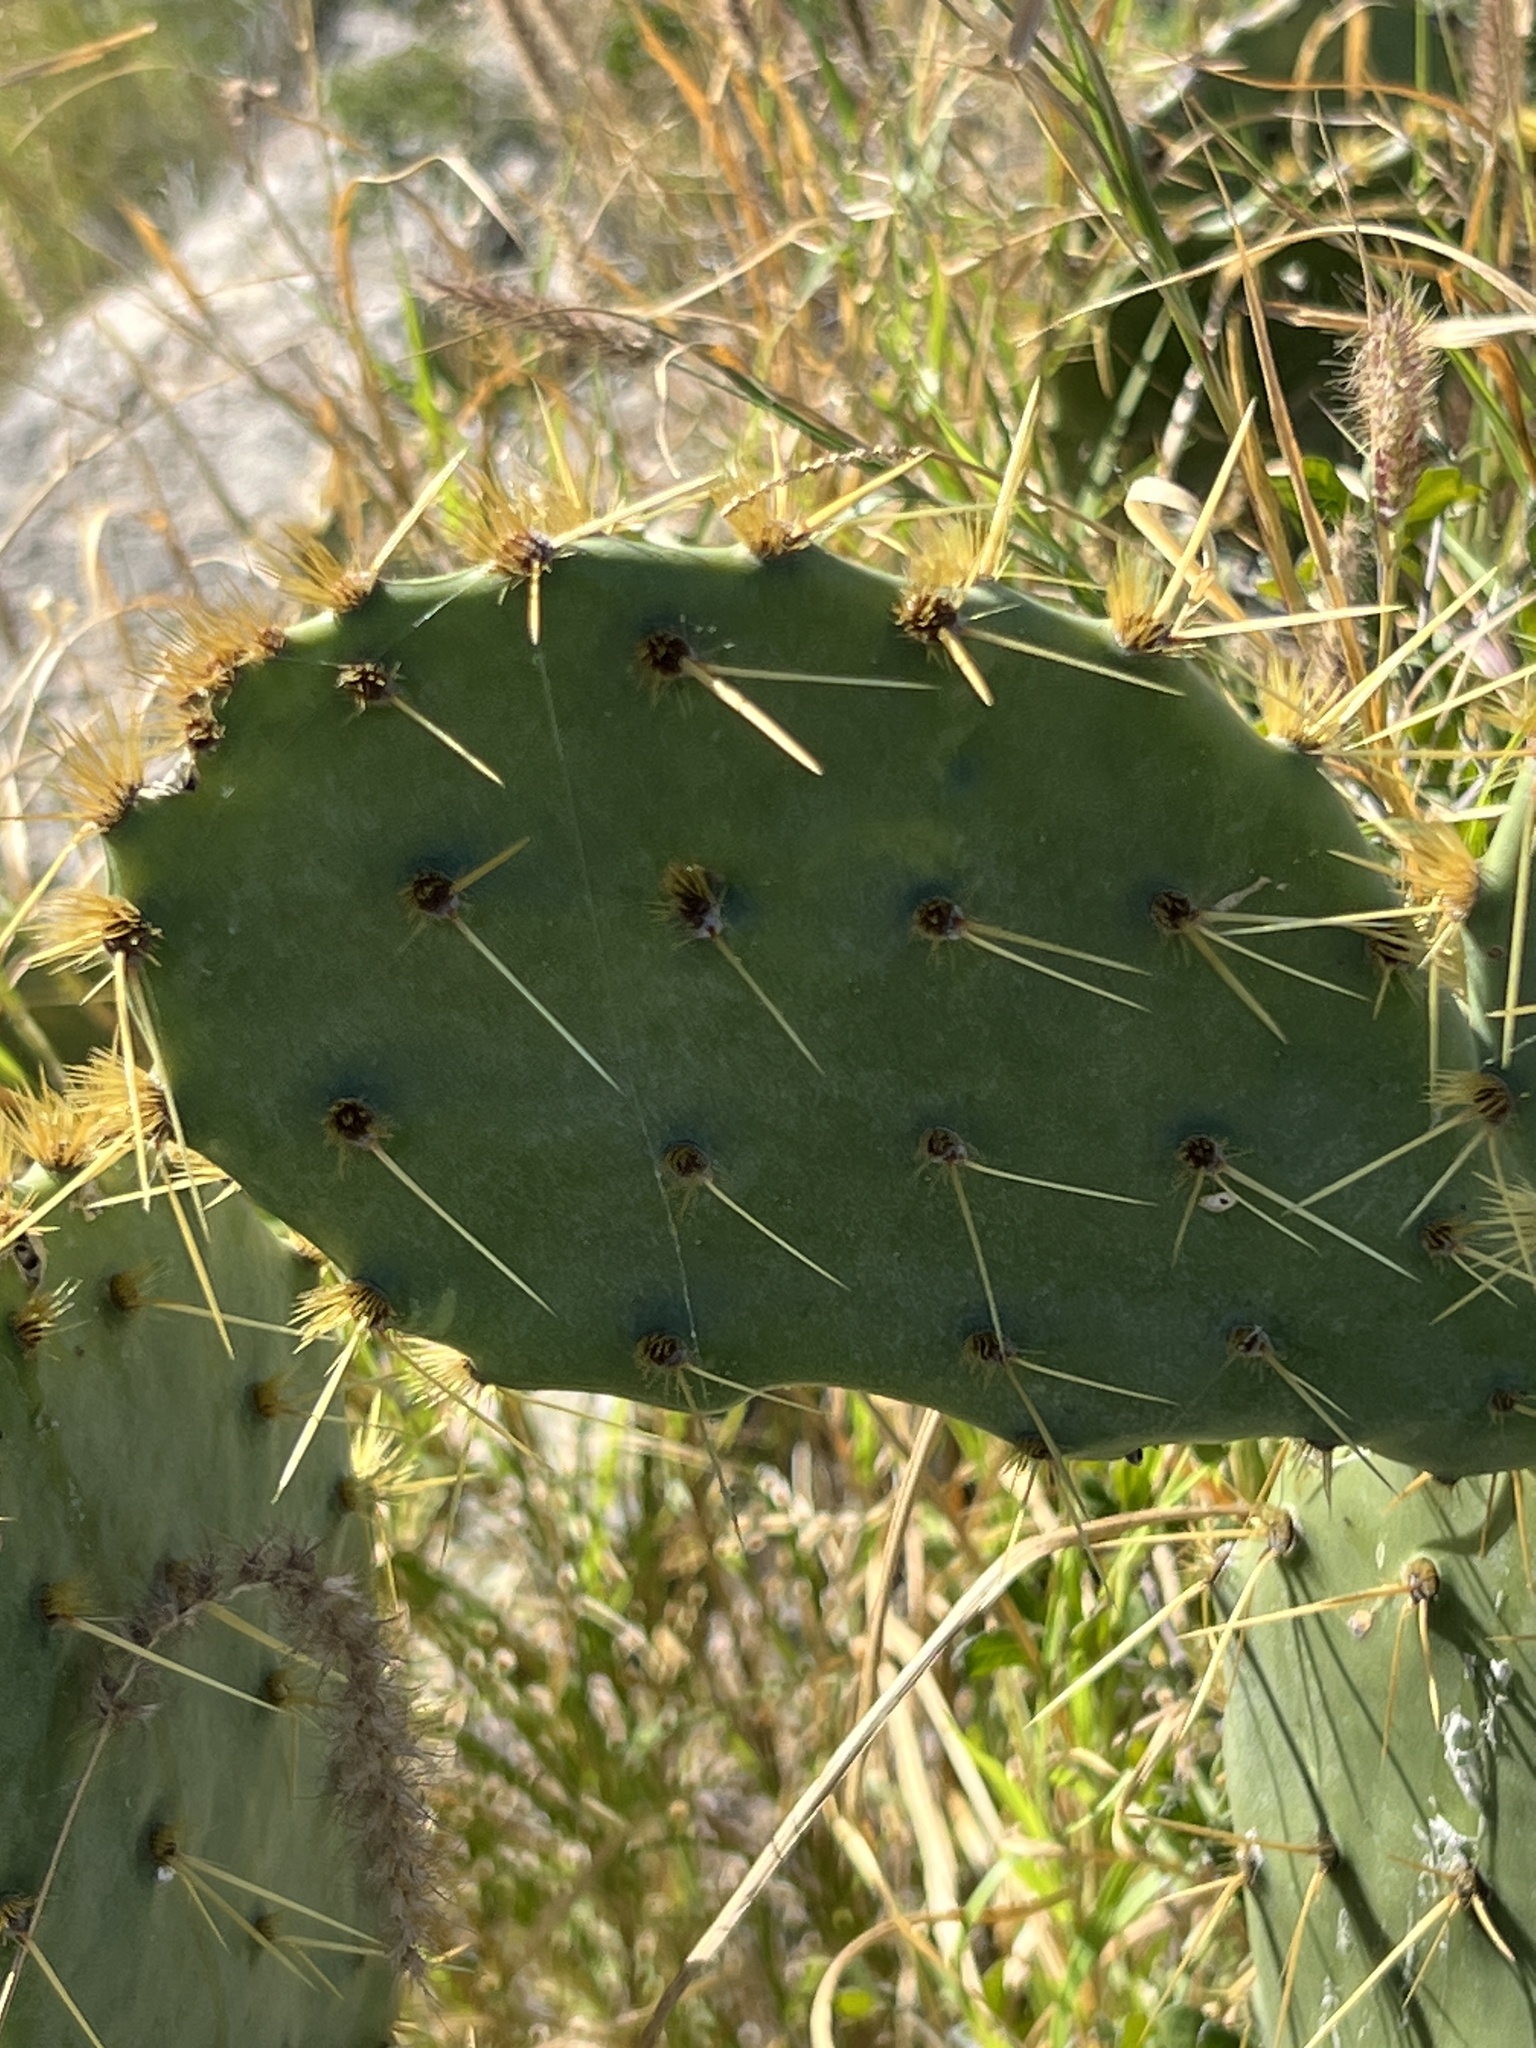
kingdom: Plantae
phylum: Tracheophyta
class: Magnoliopsida
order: Caryophyllales
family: Cactaceae
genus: Opuntia
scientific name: Opuntia engelmannii
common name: Cactus-apple
